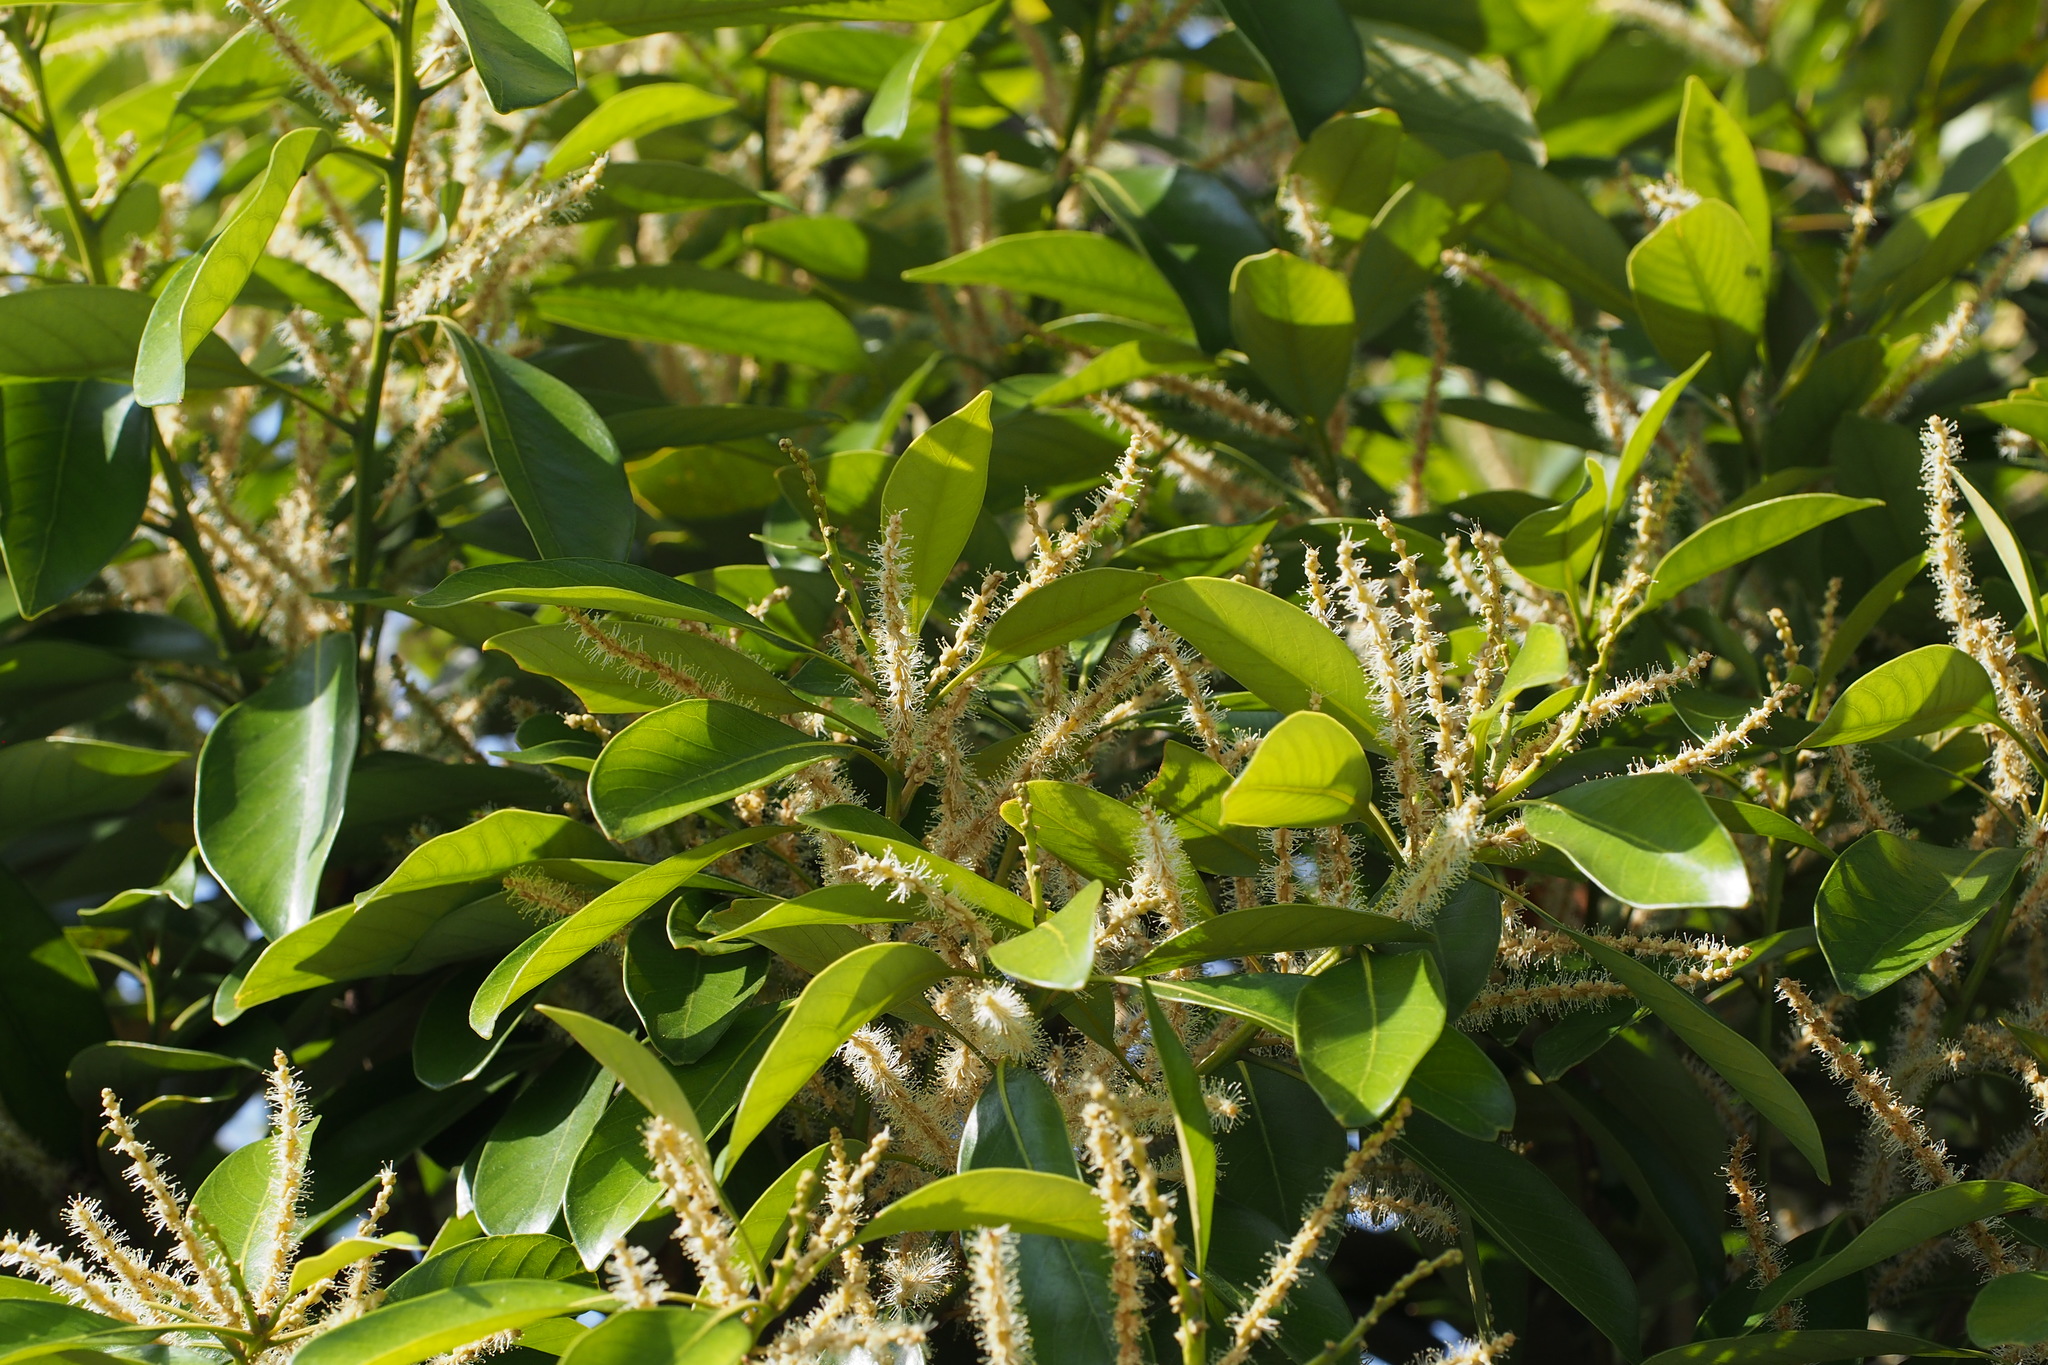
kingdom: Plantae
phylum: Tracheophyta
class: Magnoliopsida
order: Fagales
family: Fagaceae
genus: Lithocarpus
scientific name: Lithocarpus edulis
